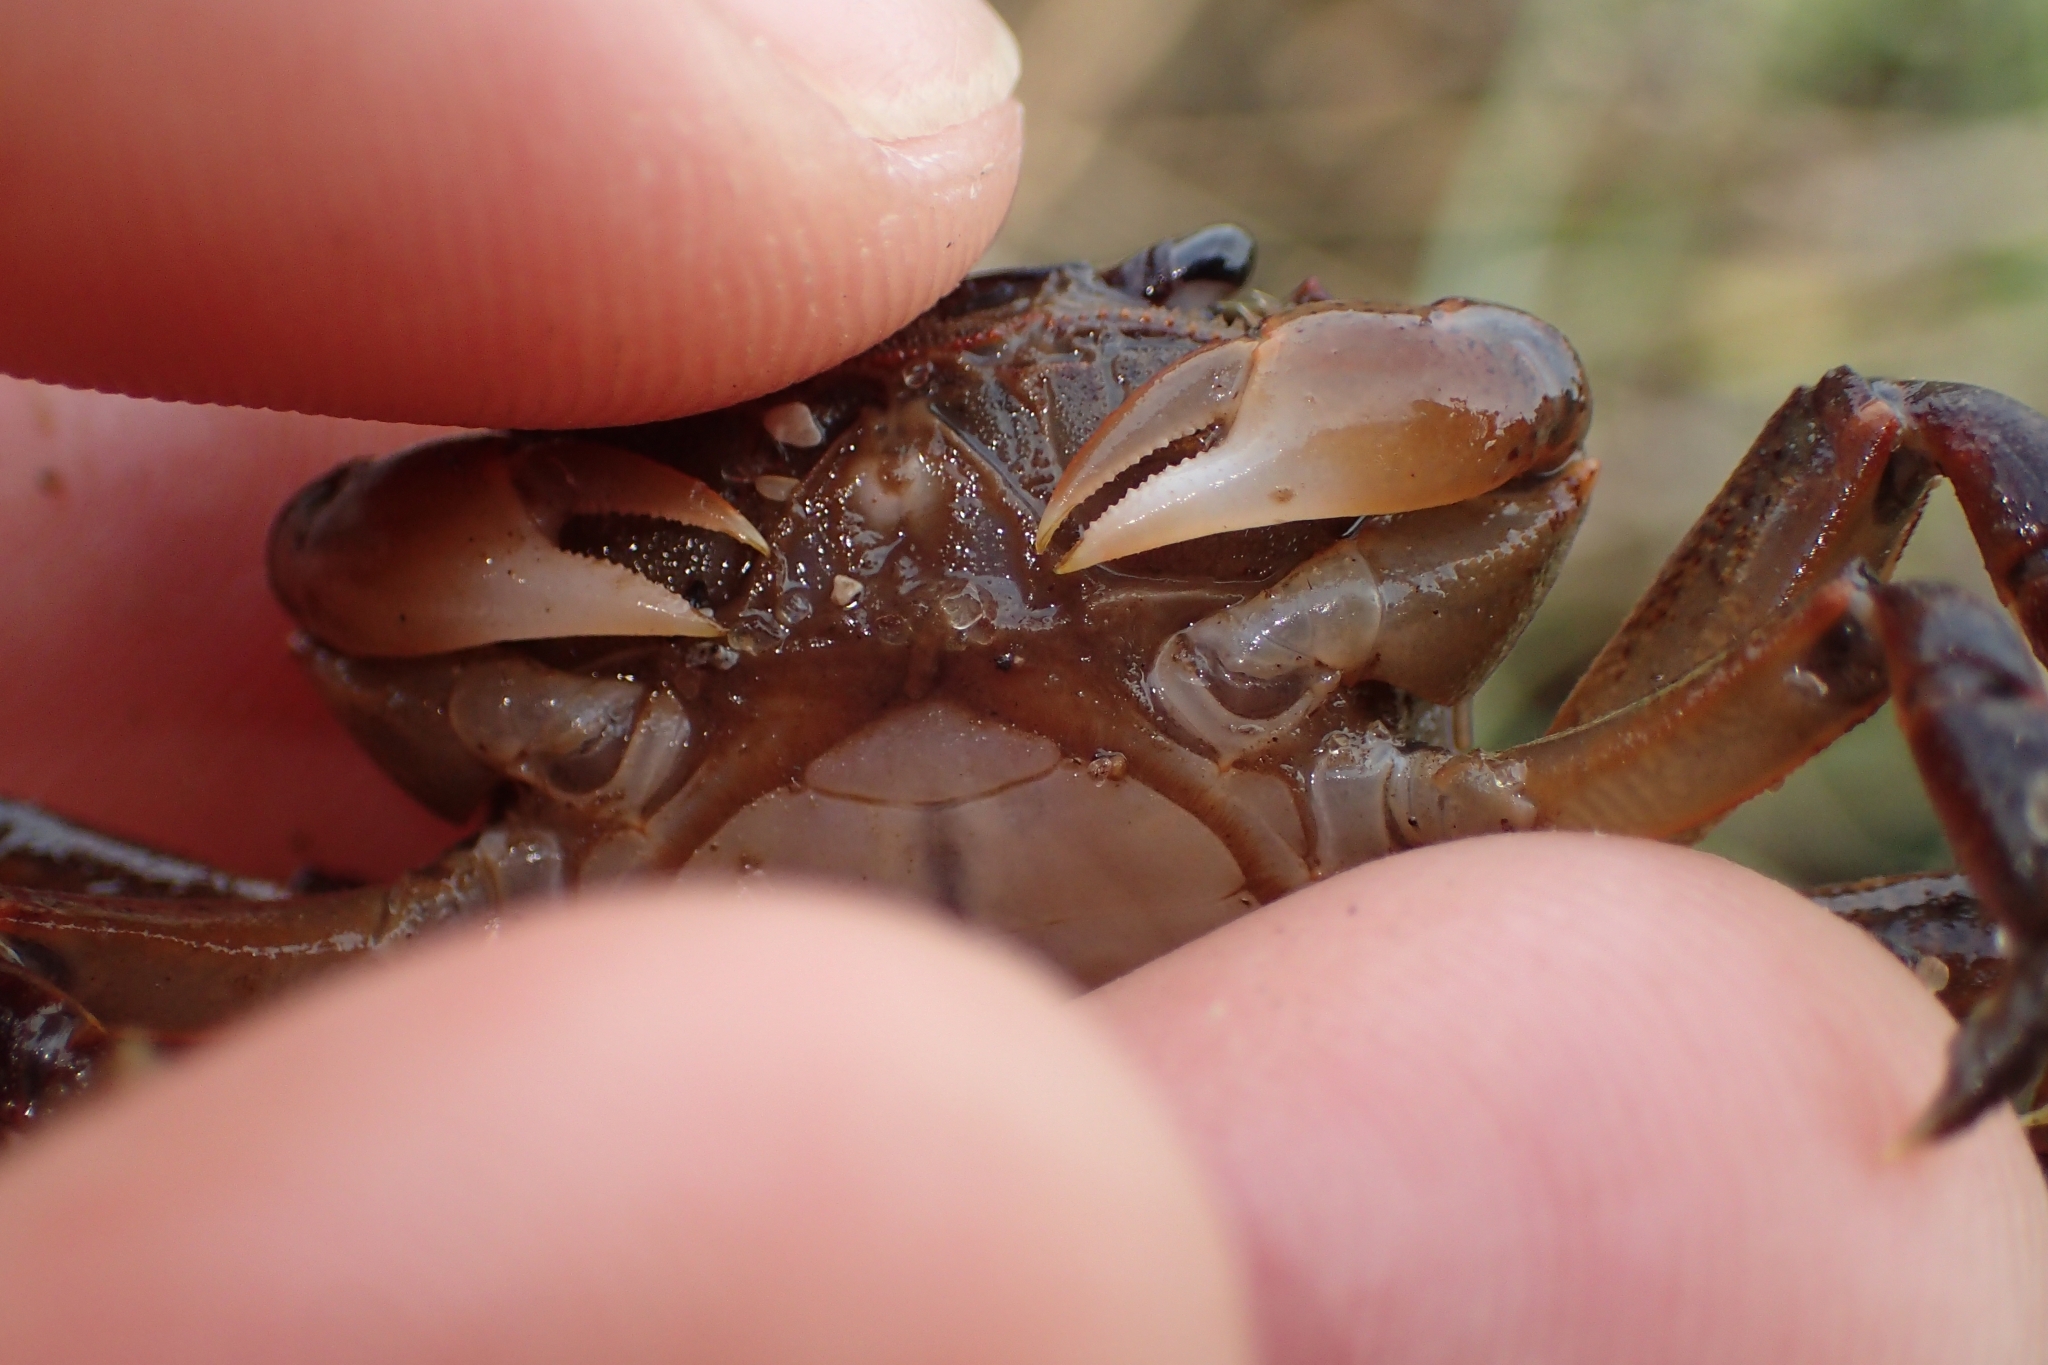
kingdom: Animalia
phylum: Arthropoda
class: Malacostraca
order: Decapoda
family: Varunidae
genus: Cyclograpsus
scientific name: Cyclograpsus lavauxi
